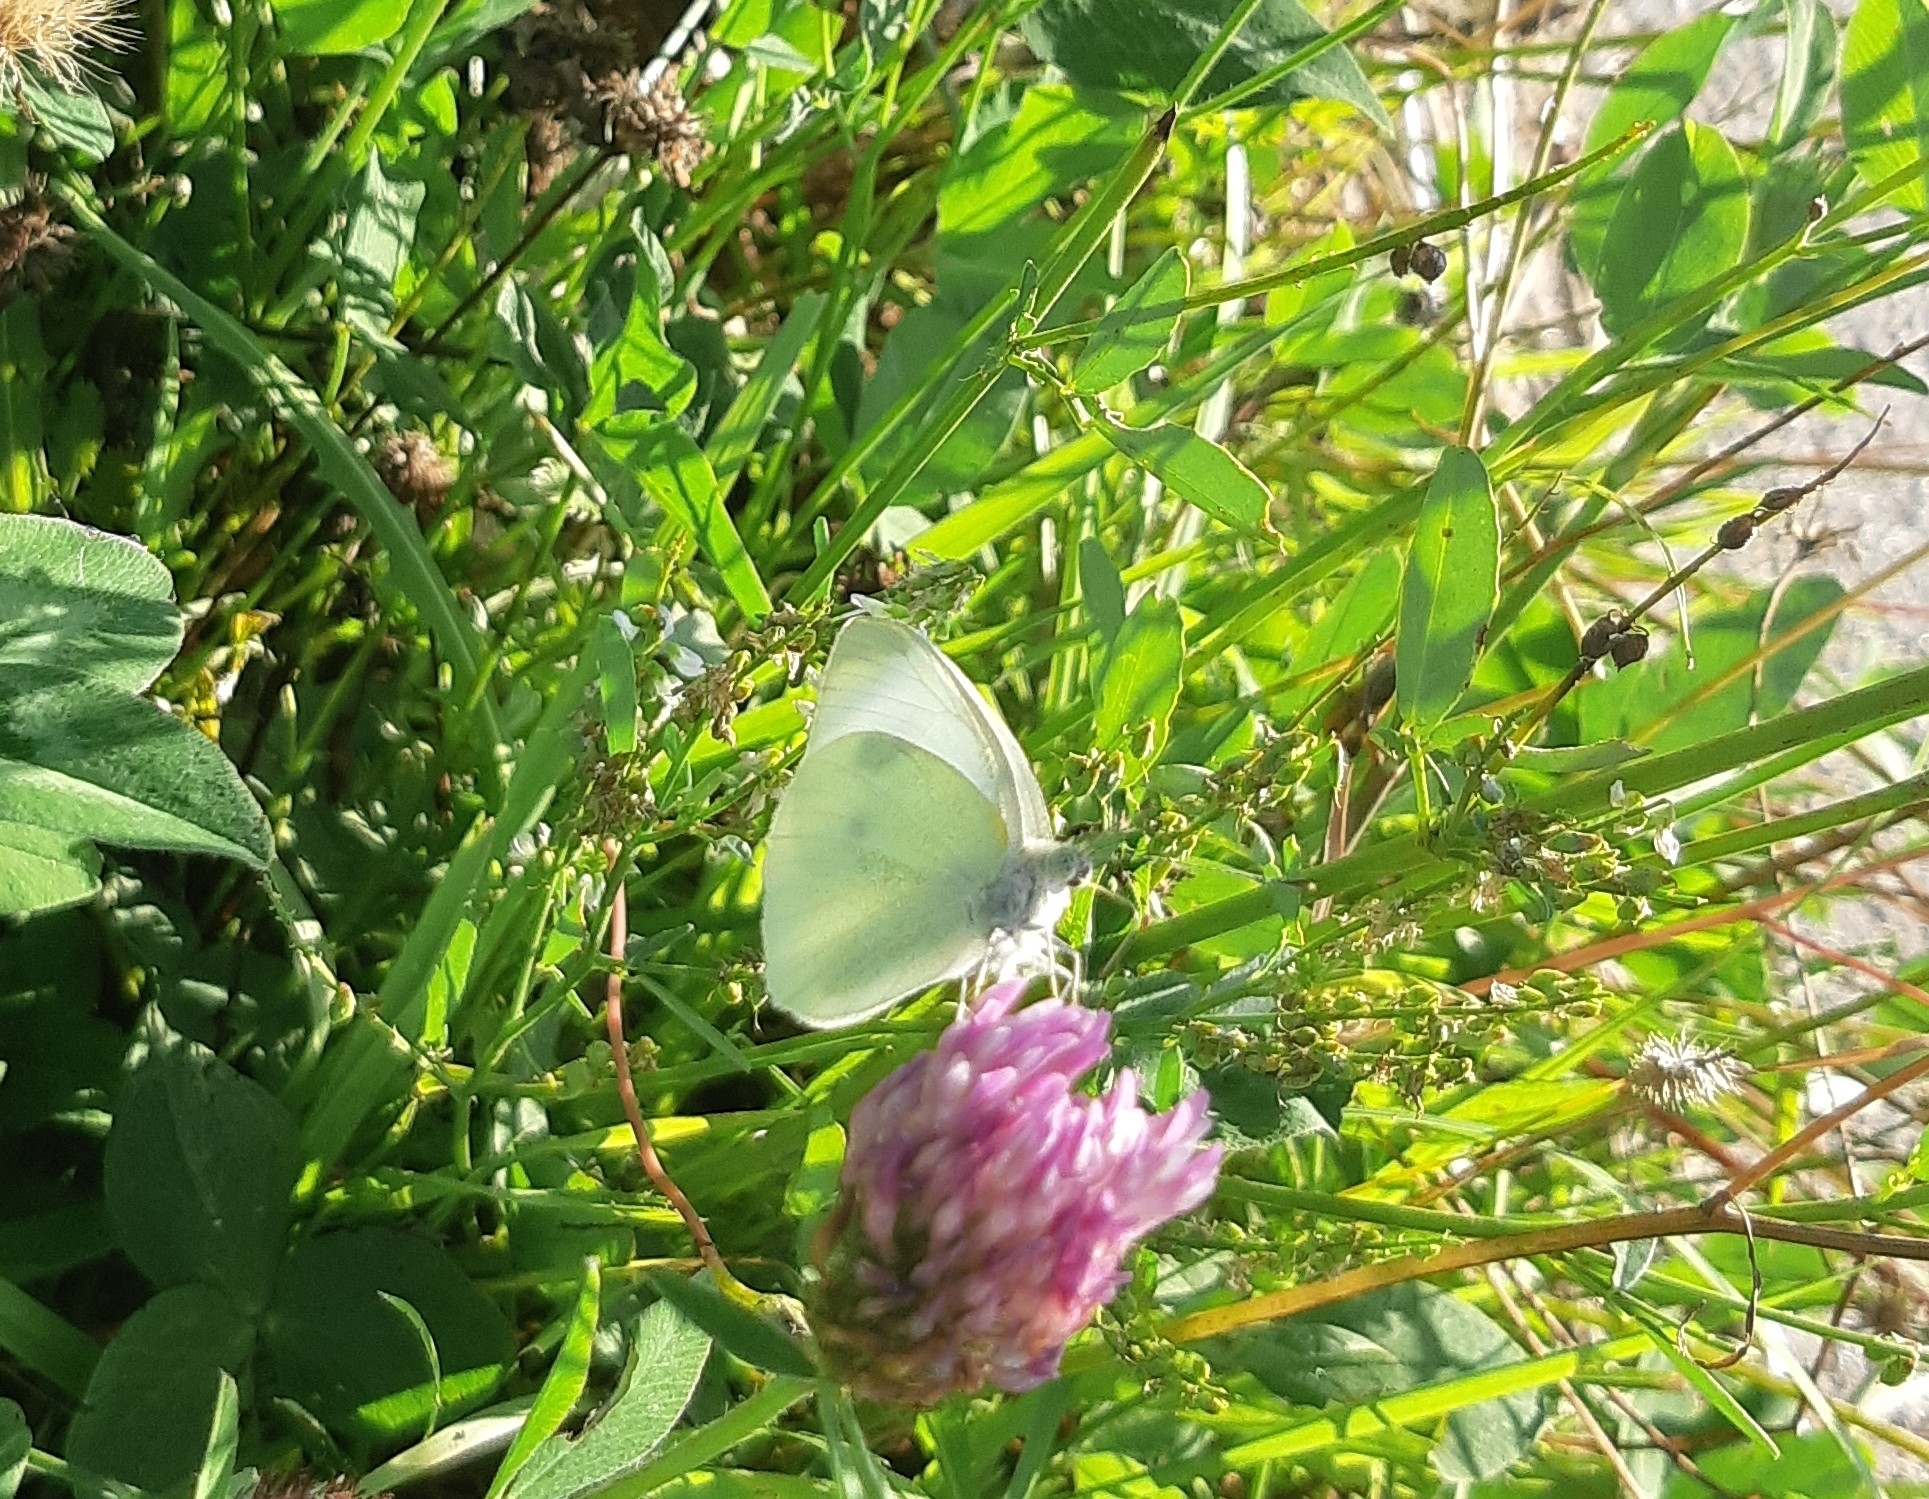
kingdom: Animalia
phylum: Arthropoda
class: Insecta
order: Lepidoptera
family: Pieridae
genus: Pieris
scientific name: Pieris rapae
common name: Small white
